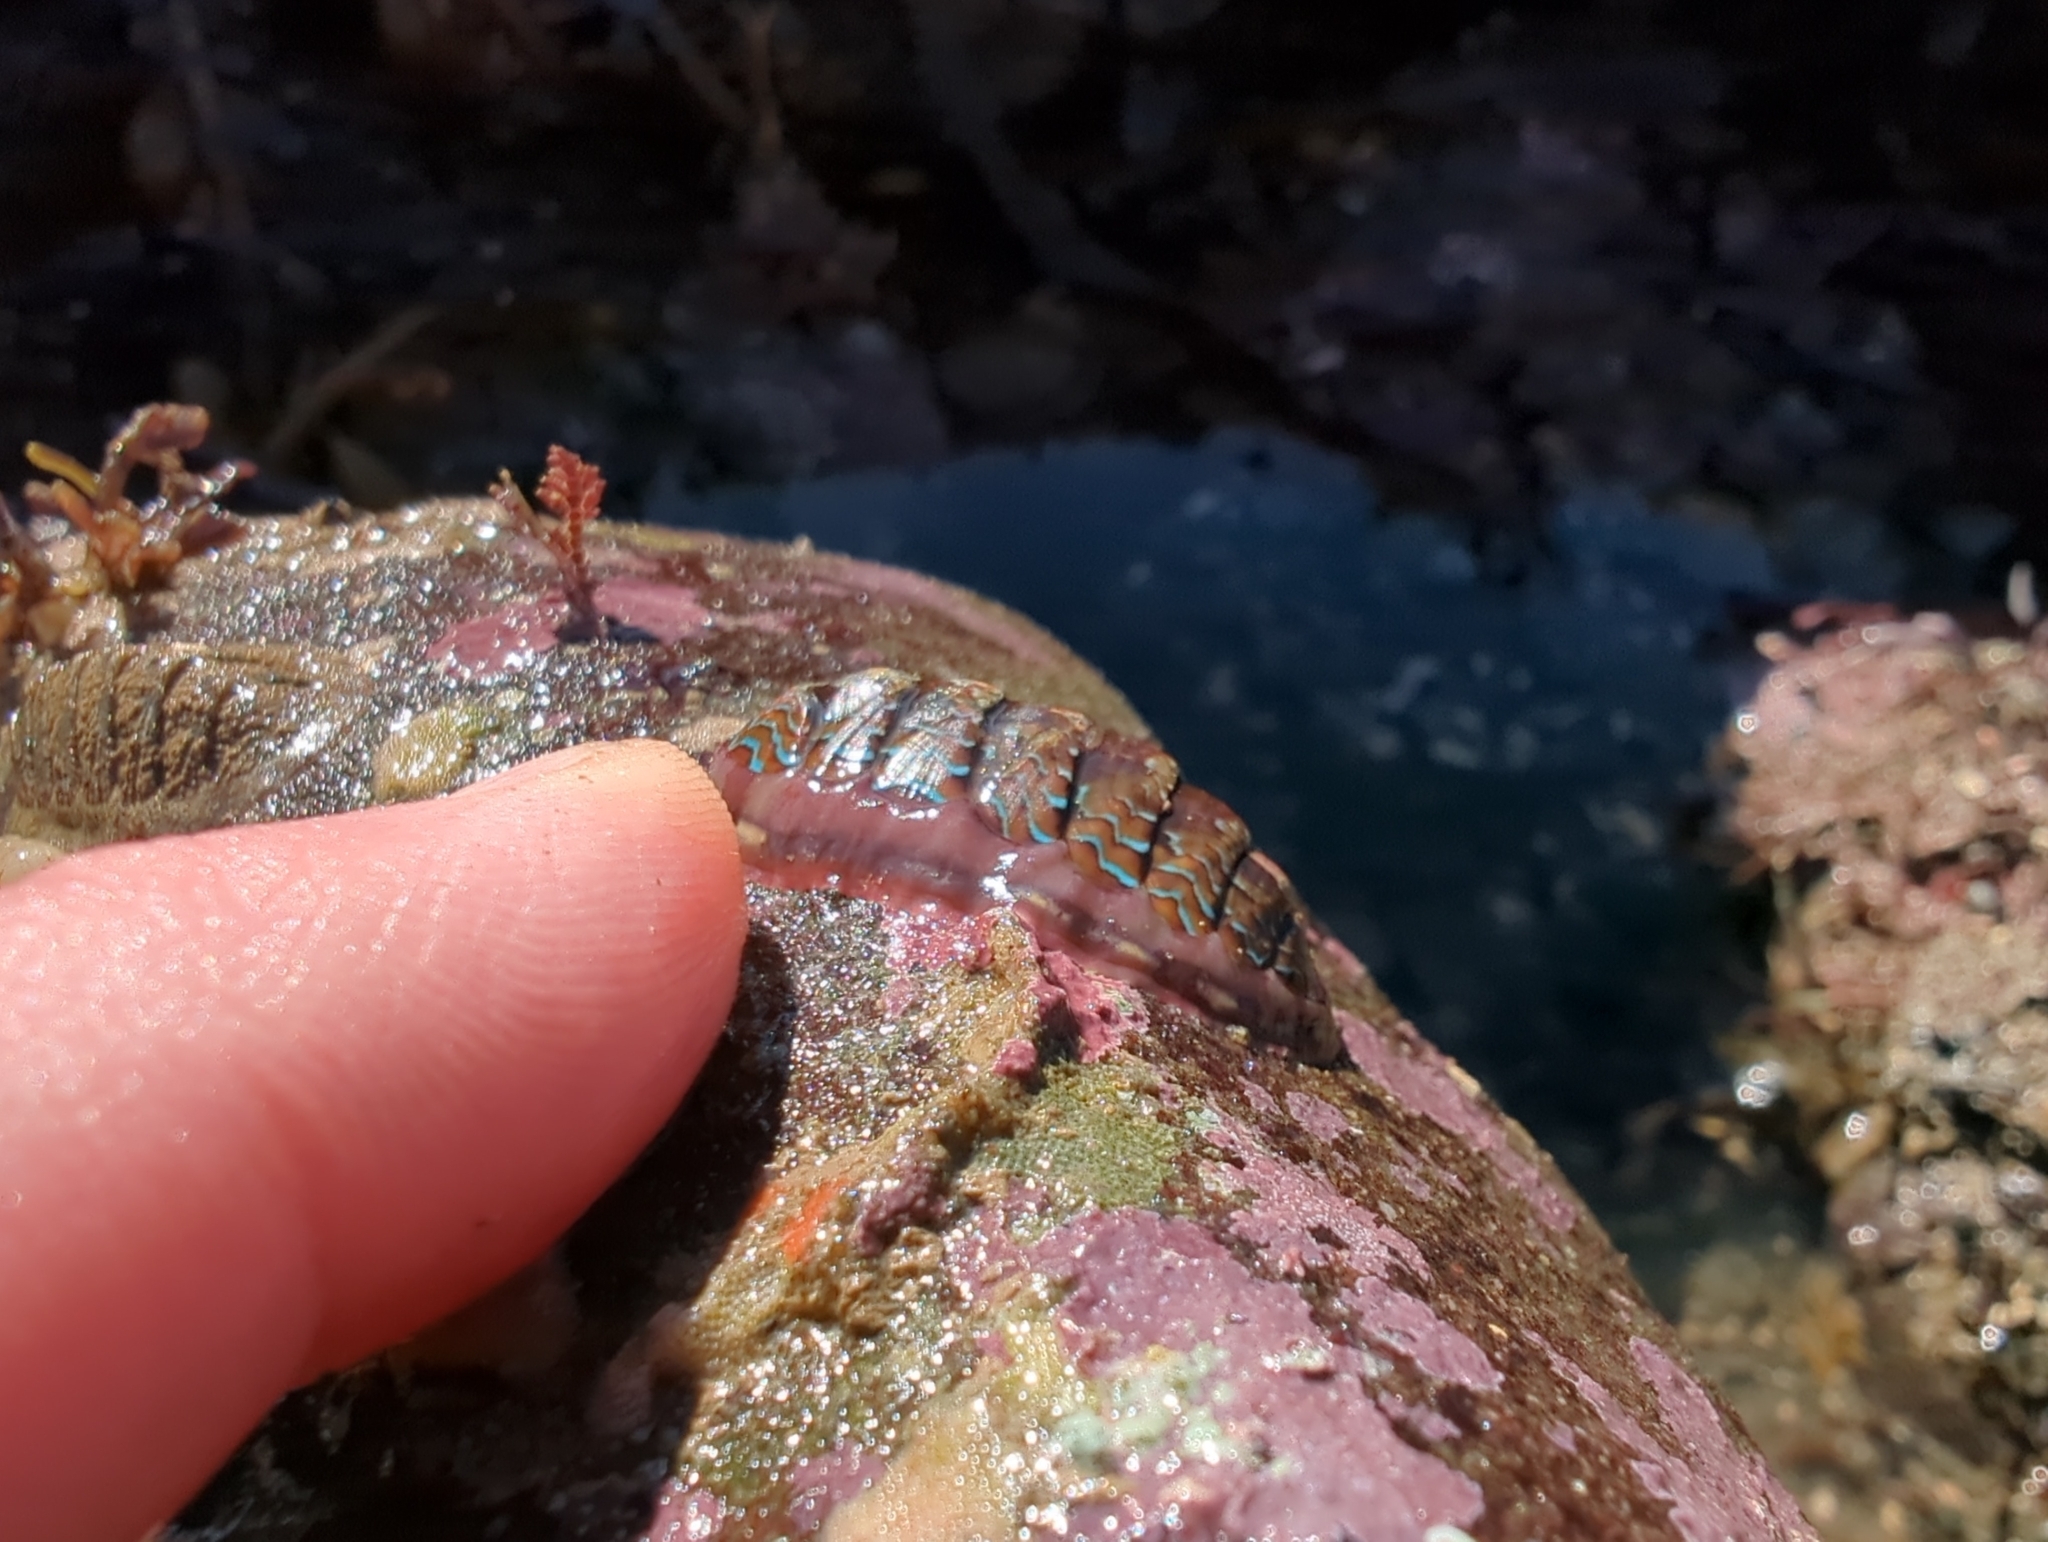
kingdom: Animalia
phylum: Mollusca
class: Polyplacophora
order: Chitonida
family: Tonicellidae
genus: Tonicella
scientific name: Tonicella lokii
